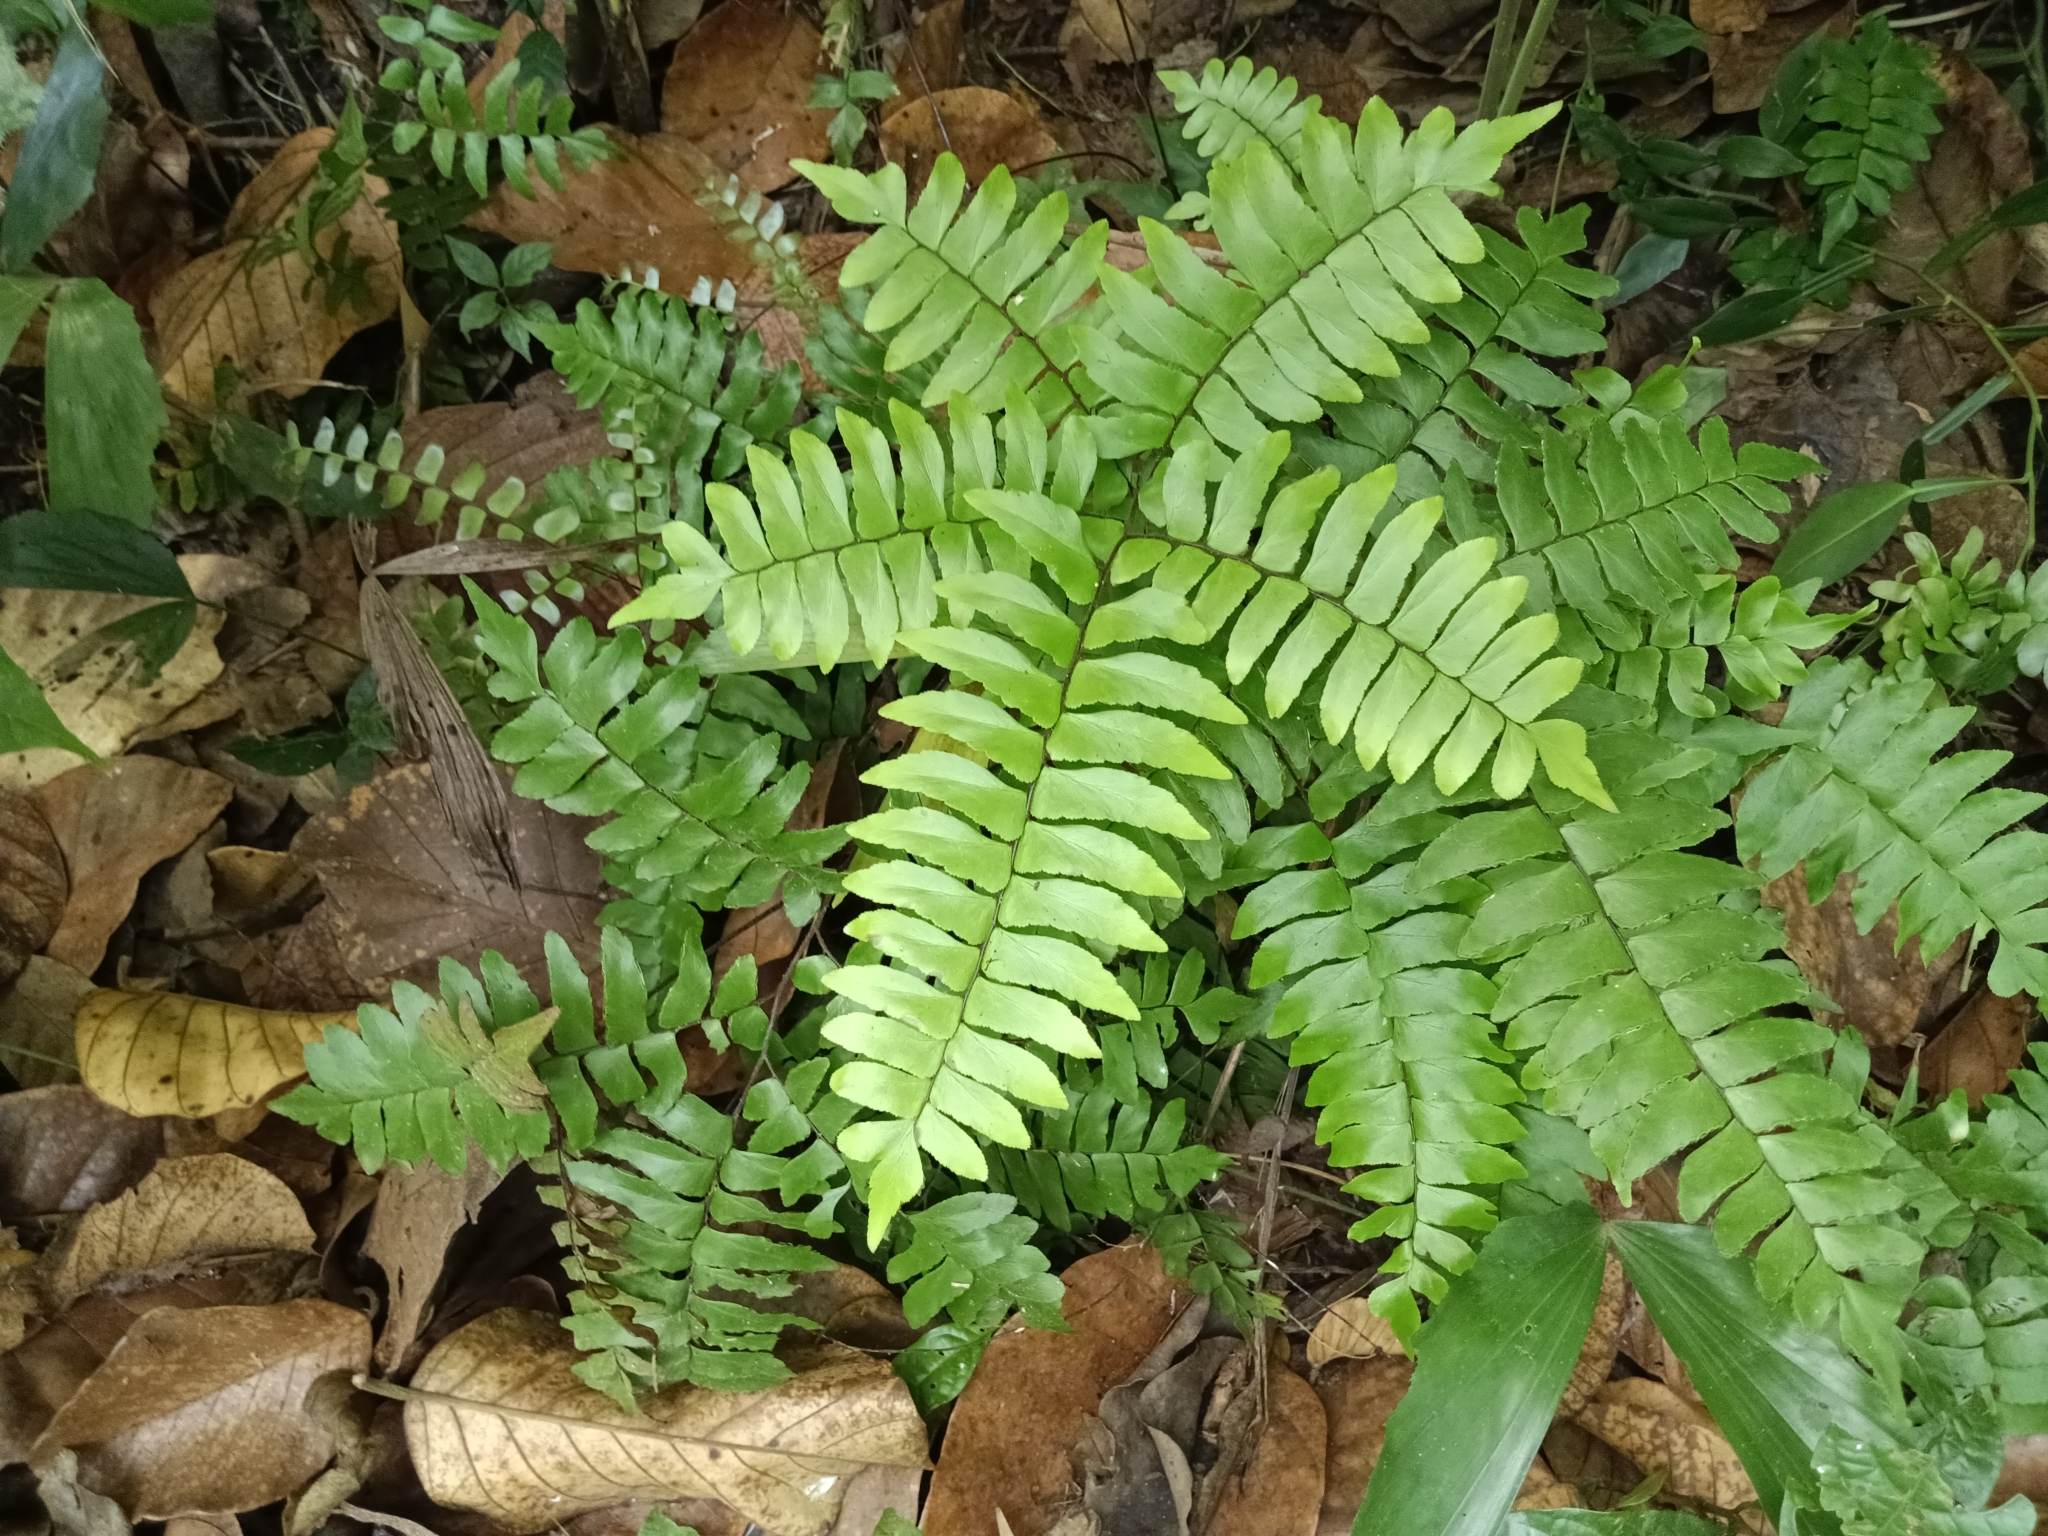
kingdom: Plantae
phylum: Tracheophyta
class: Polypodiopsida
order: Polypodiales
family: Pteridaceae
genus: Adiantum
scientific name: Adiantum latifolium
